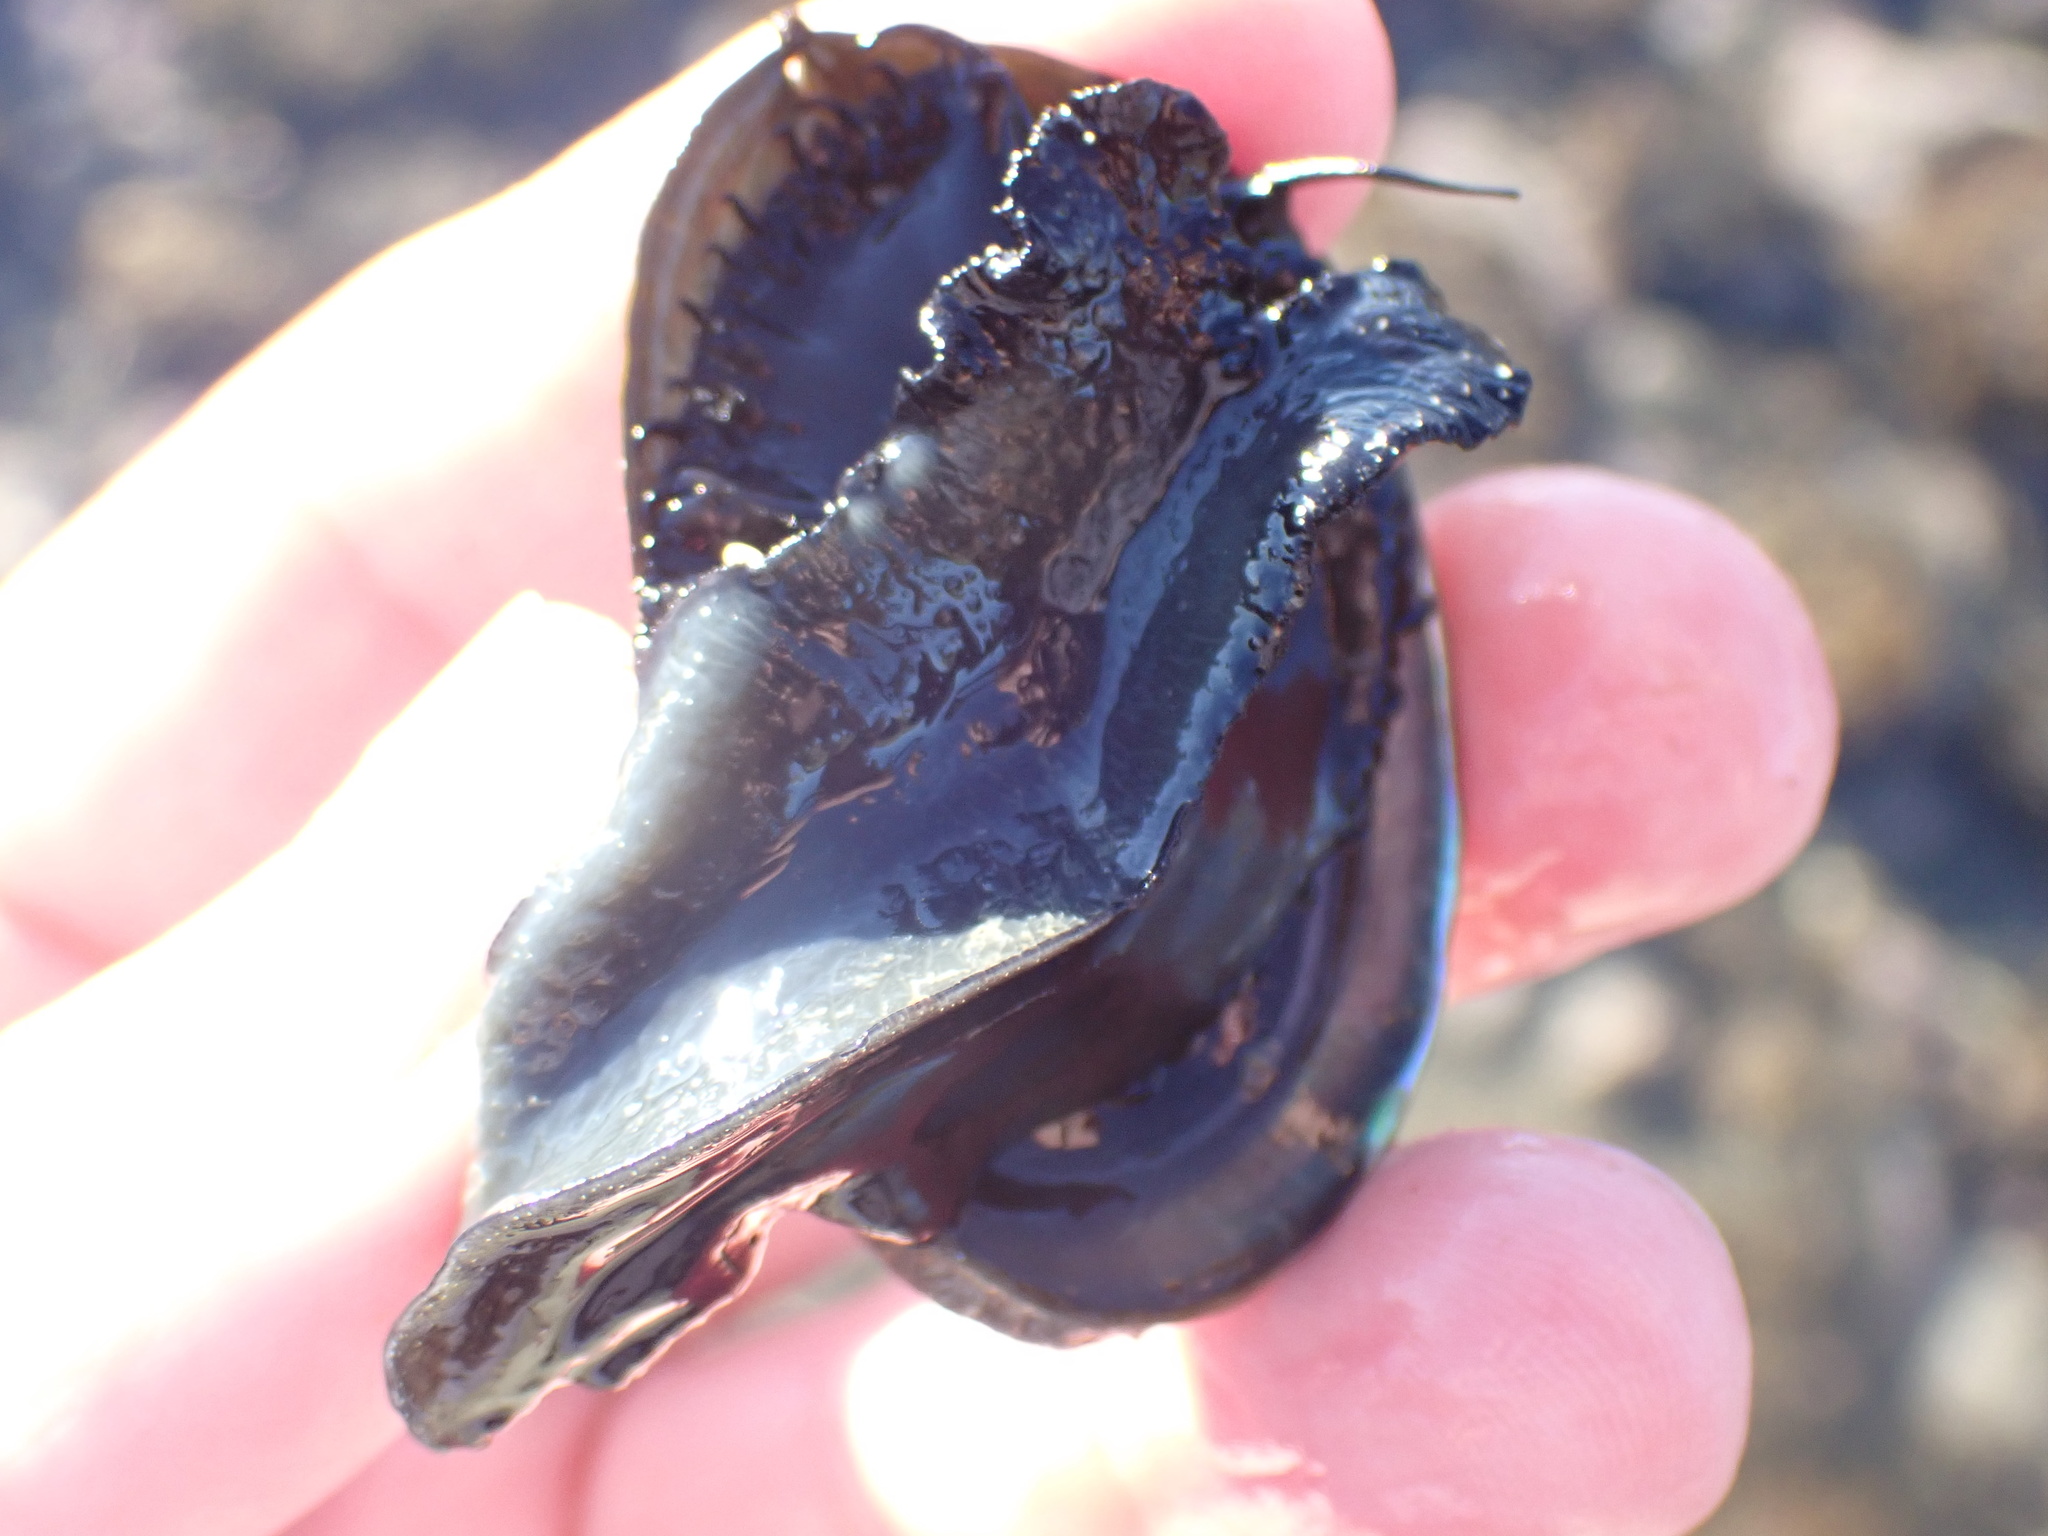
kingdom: Animalia
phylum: Mollusca
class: Gastropoda
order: Lepetellida
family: Haliotidae
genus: Haliotis
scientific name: Haliotis iris
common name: Abalone
